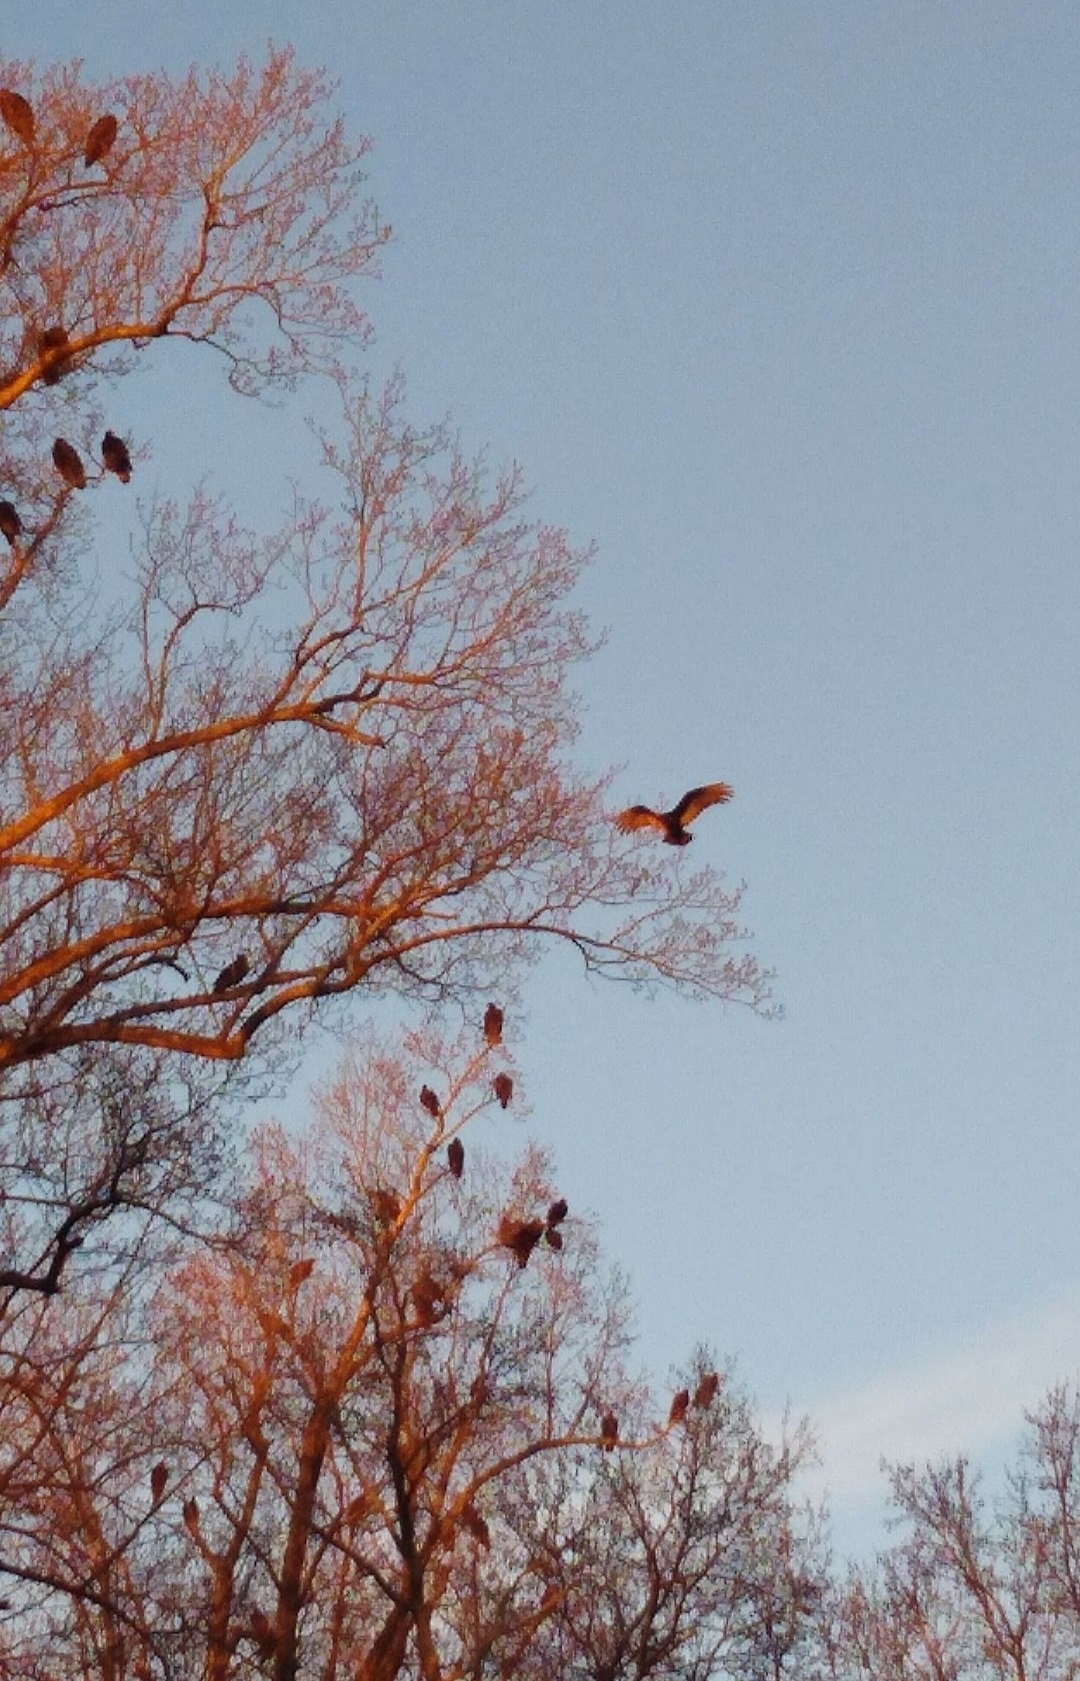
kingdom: Animalia
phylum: Chordata
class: Aves
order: Accipitriformes
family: Cathartidae
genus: Cathartes
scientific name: Cathartes aura
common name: Turkey vulture
